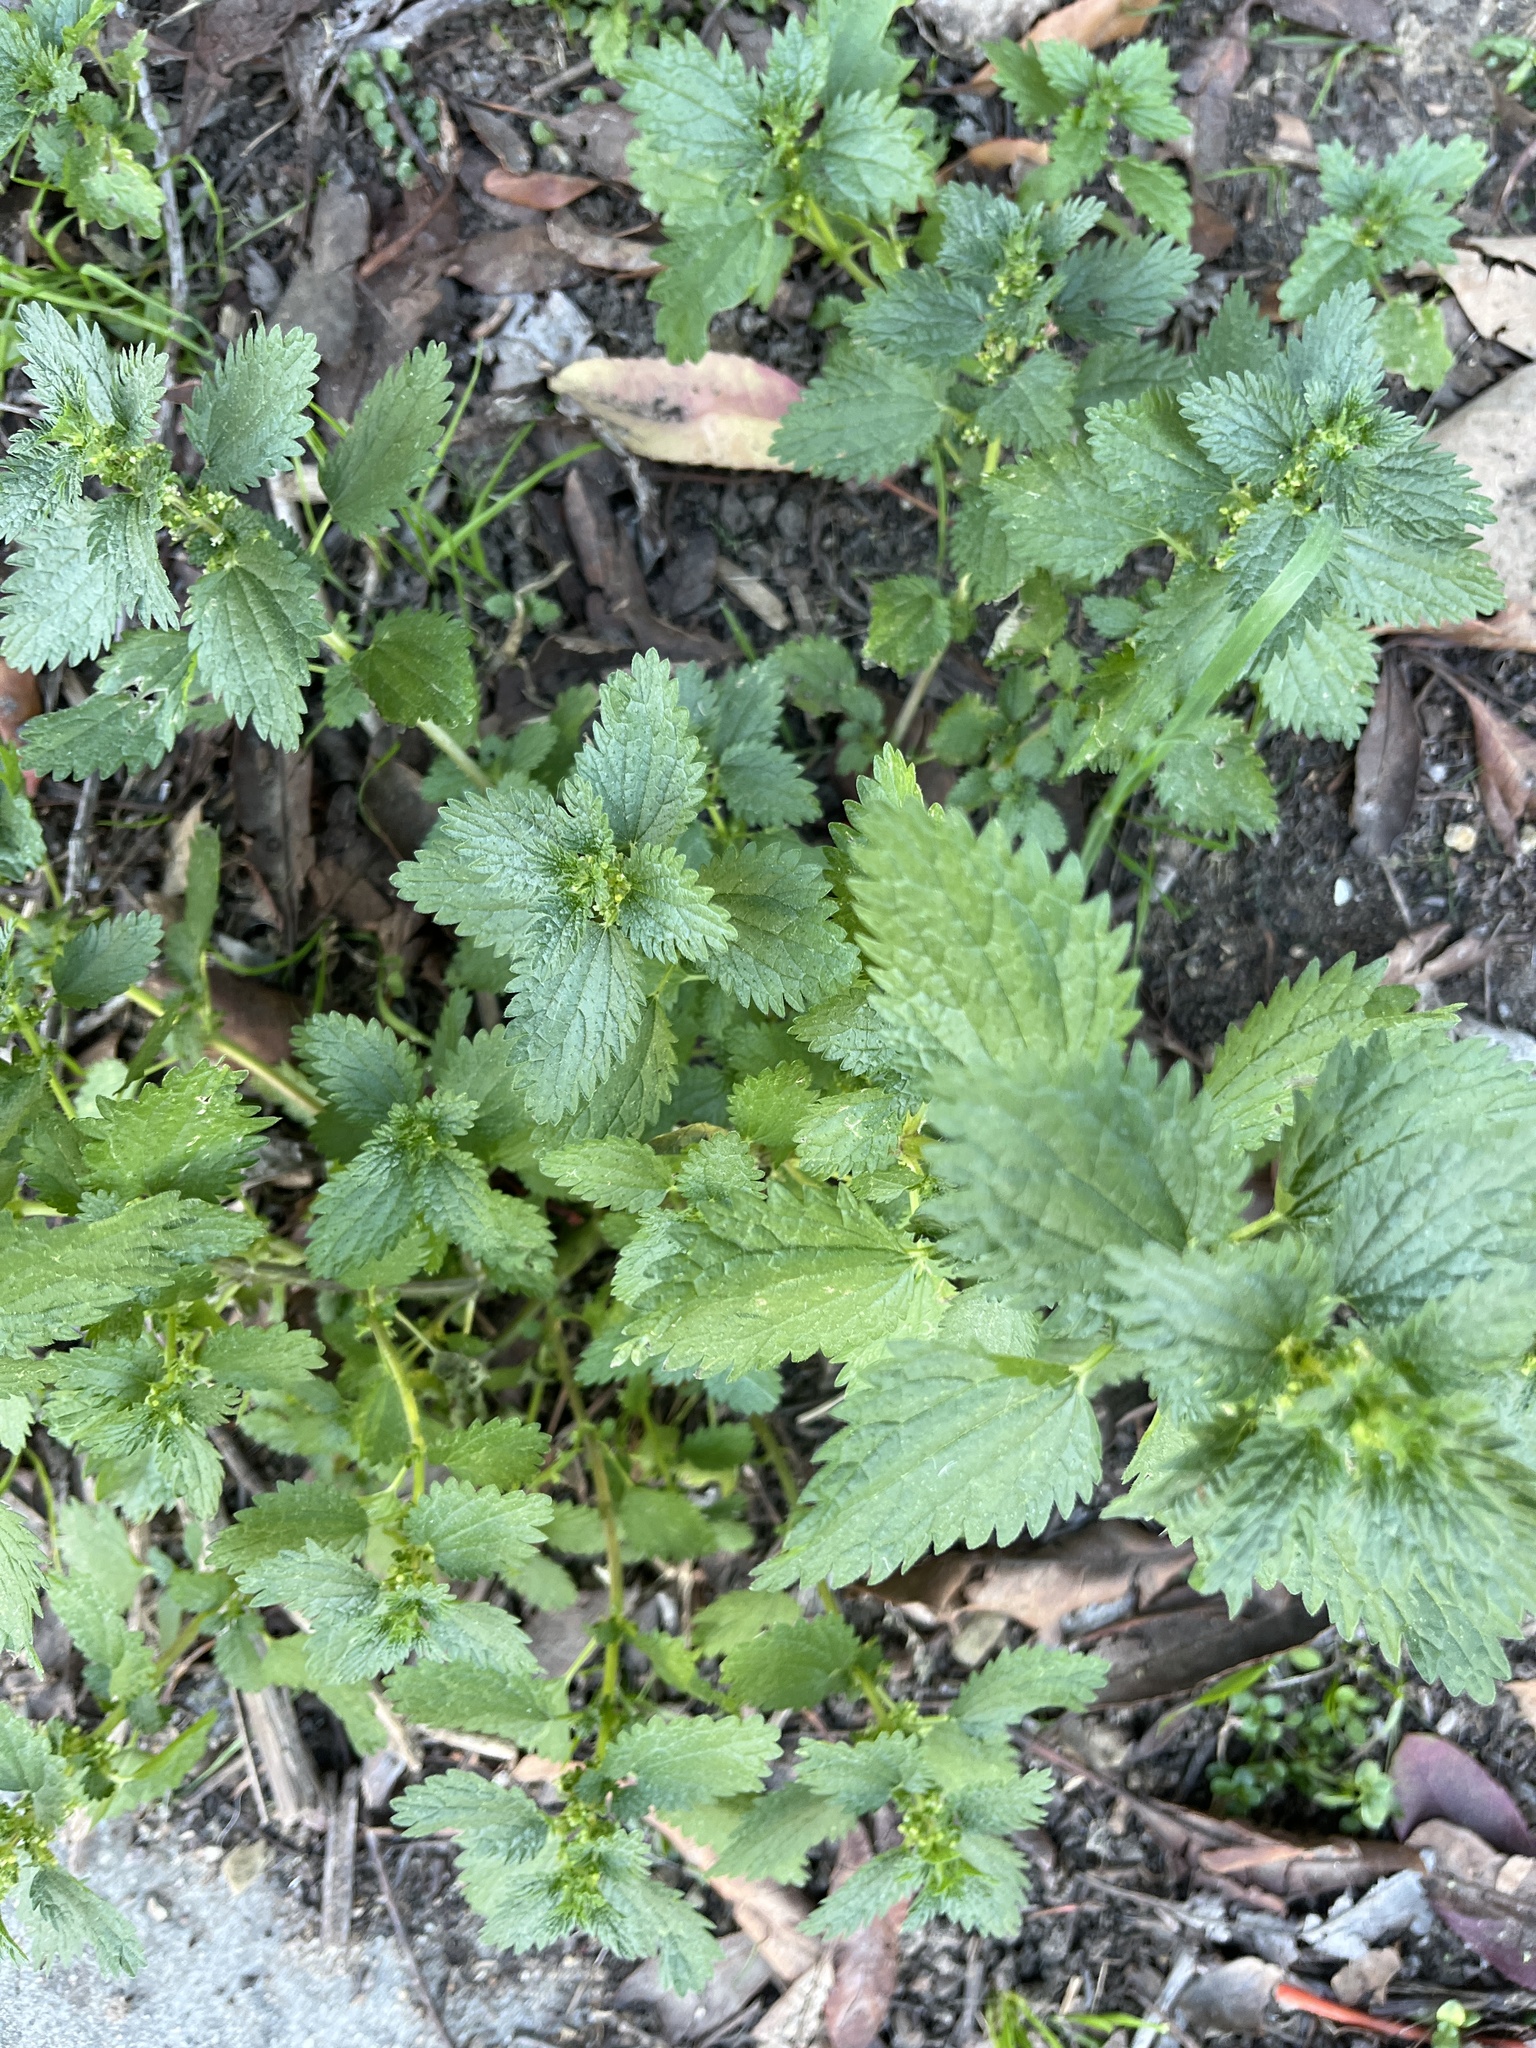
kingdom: Plantae
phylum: Tracheophyta
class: Magnoliopsida
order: Rosales
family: Urticaceae
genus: Urtica
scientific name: Urtica urens
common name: Dwarf nettle
